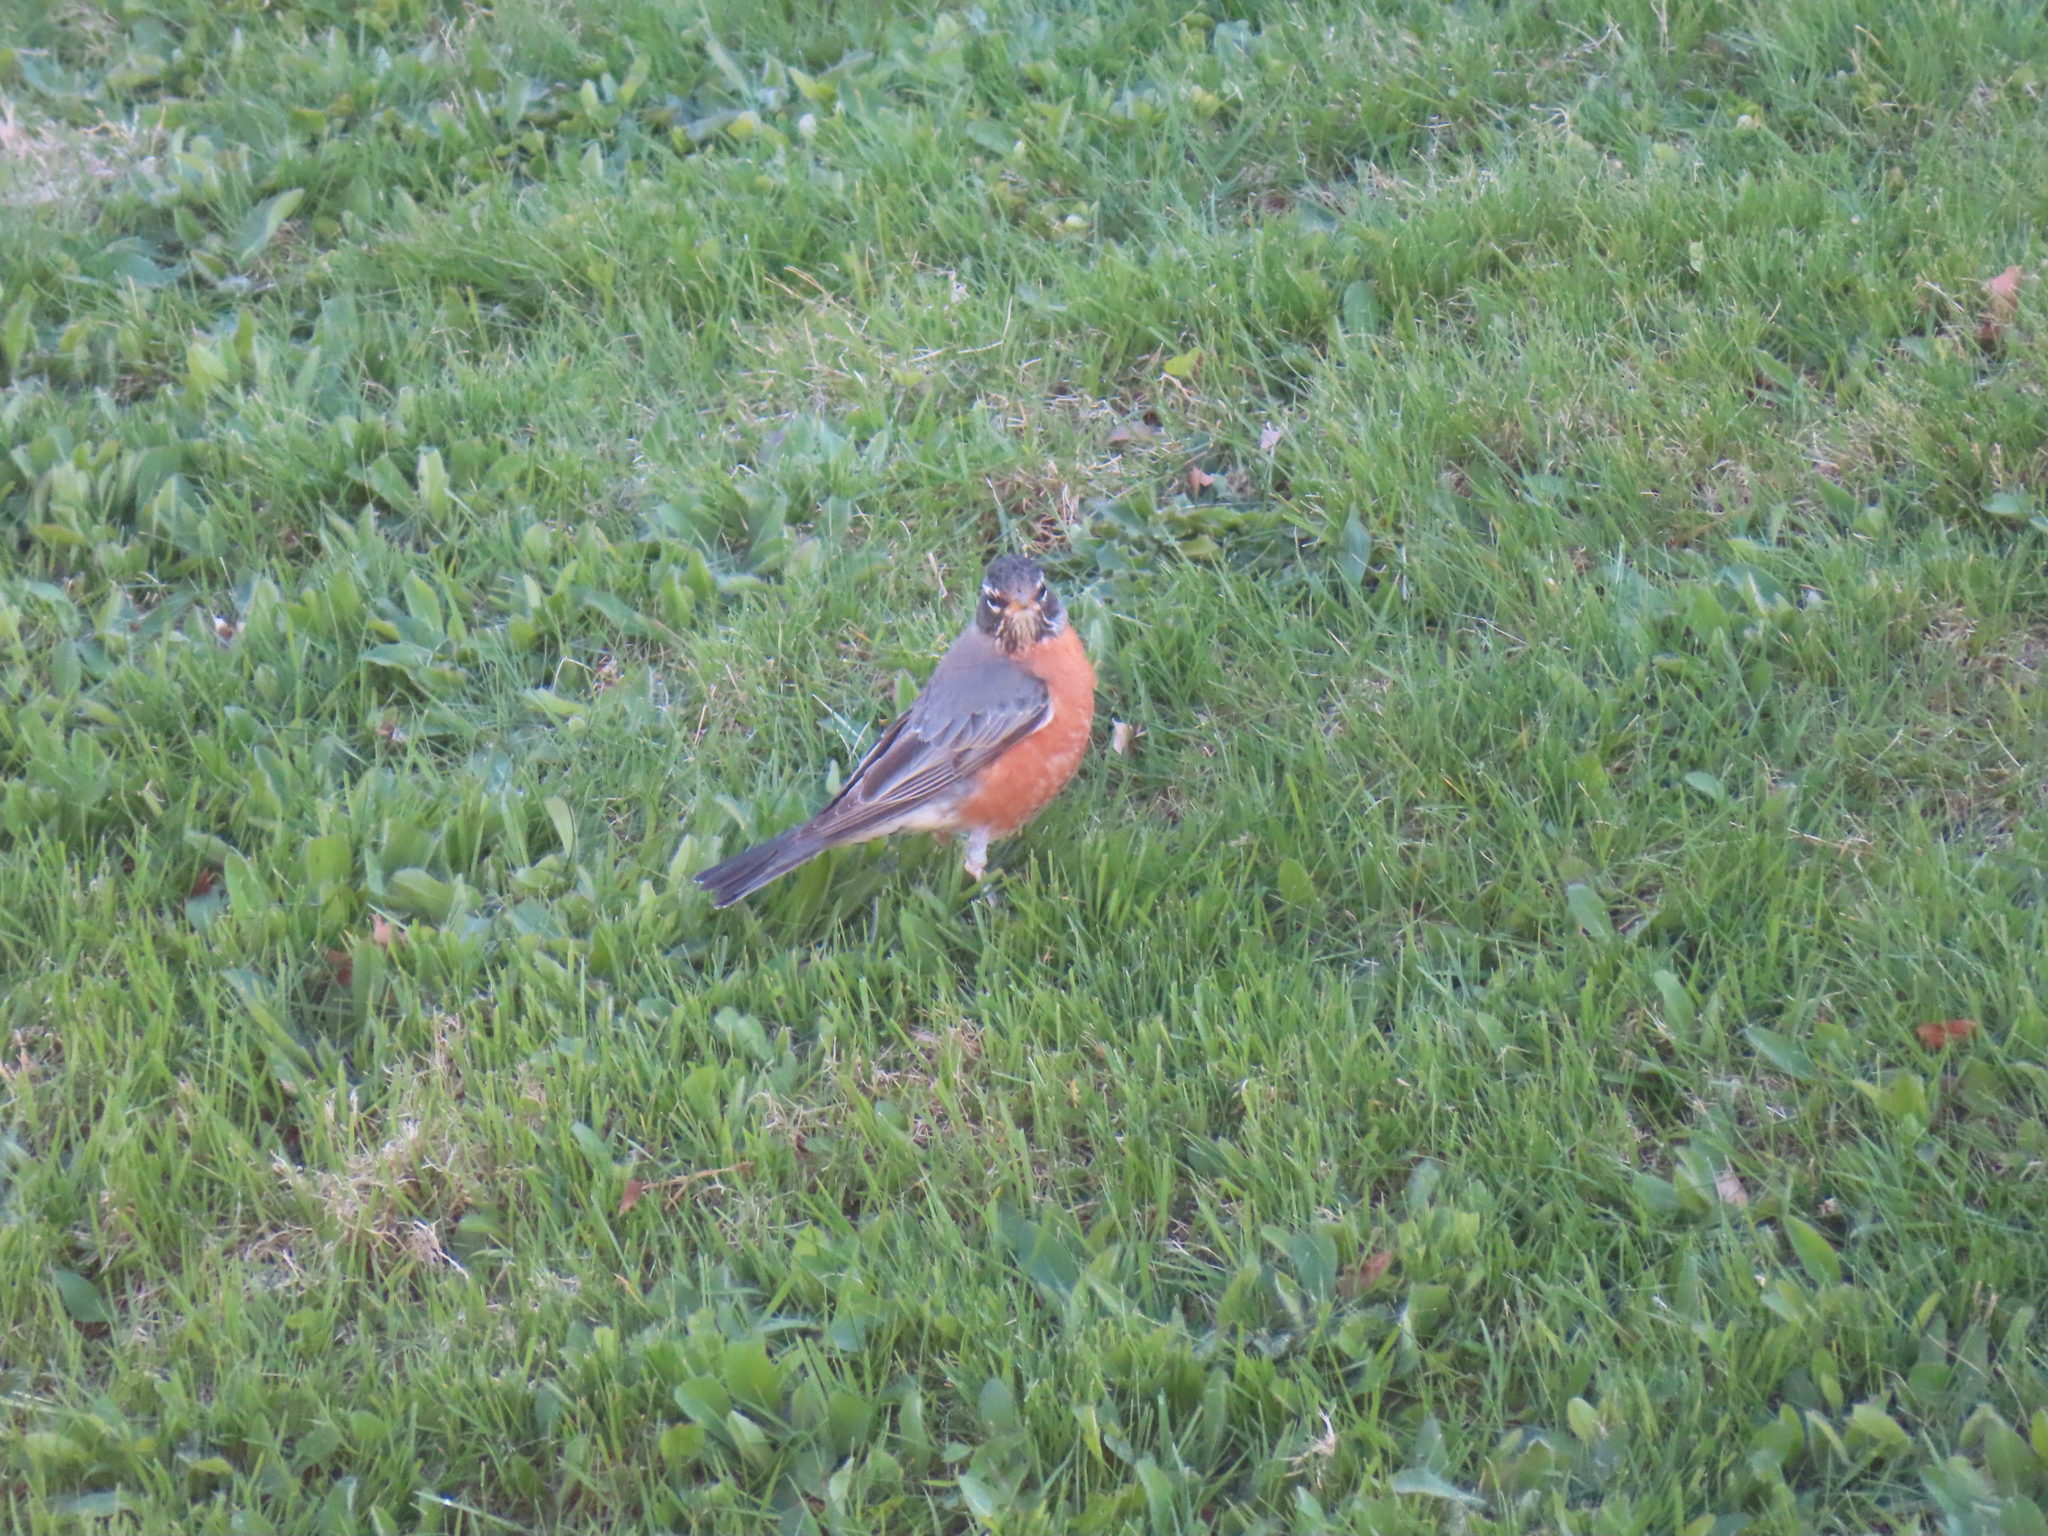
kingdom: Animalia
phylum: Chordata
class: Aves
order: Passeriformes
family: Turdidae
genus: Turdus
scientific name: Turdus migratorius
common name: American robin
